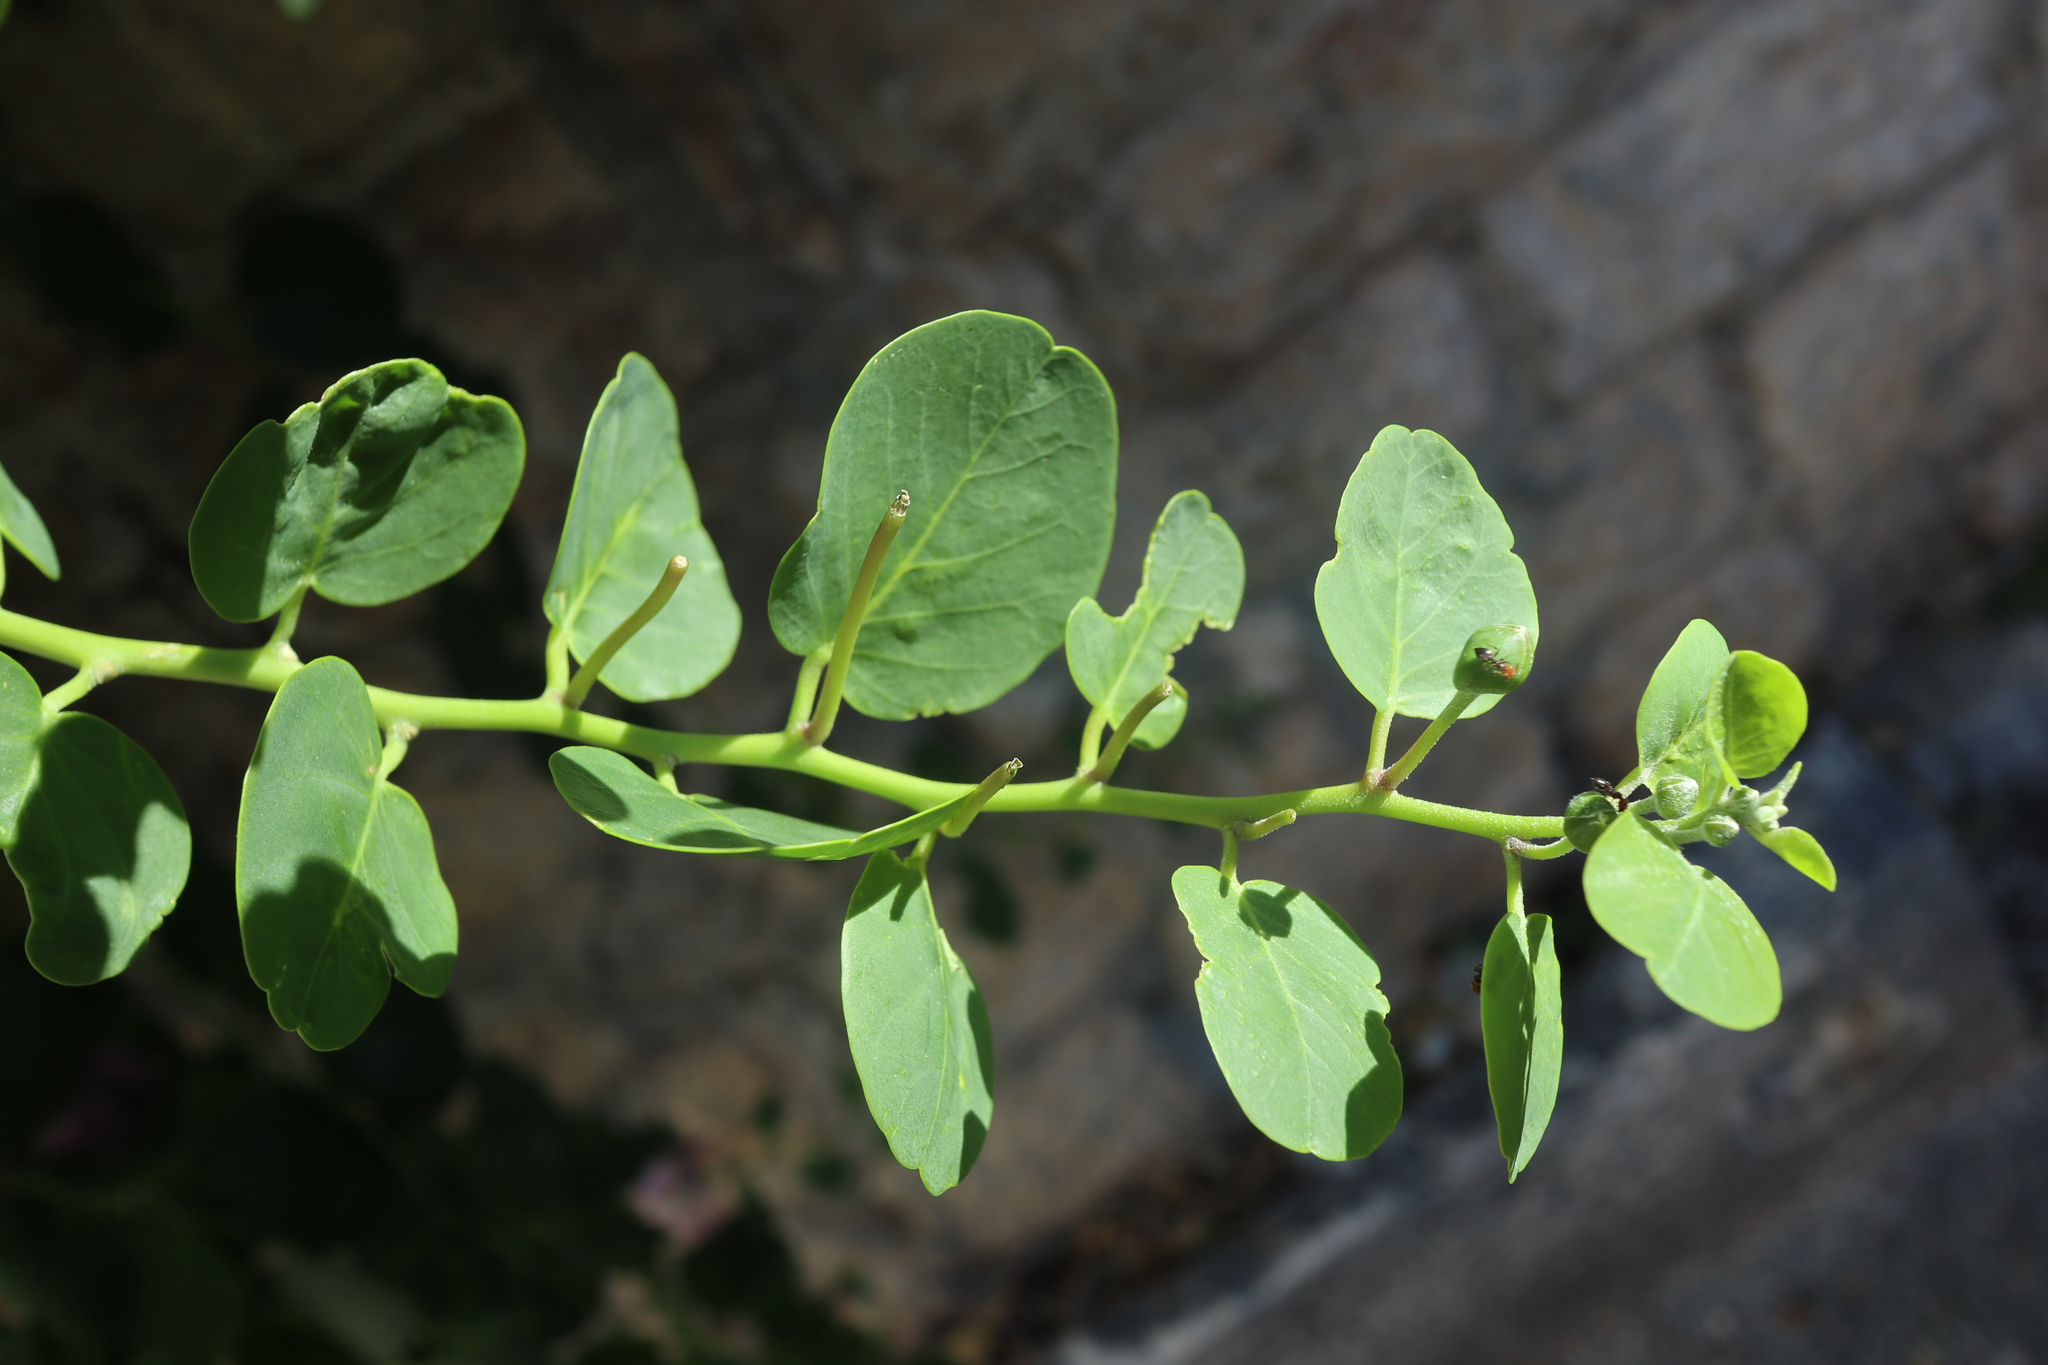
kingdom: Plantae
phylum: Tracheophyta
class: Magnoliopsida
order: Brassicales
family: Capparaceae
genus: Capparis
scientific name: Capparis spinosa
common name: Caper
